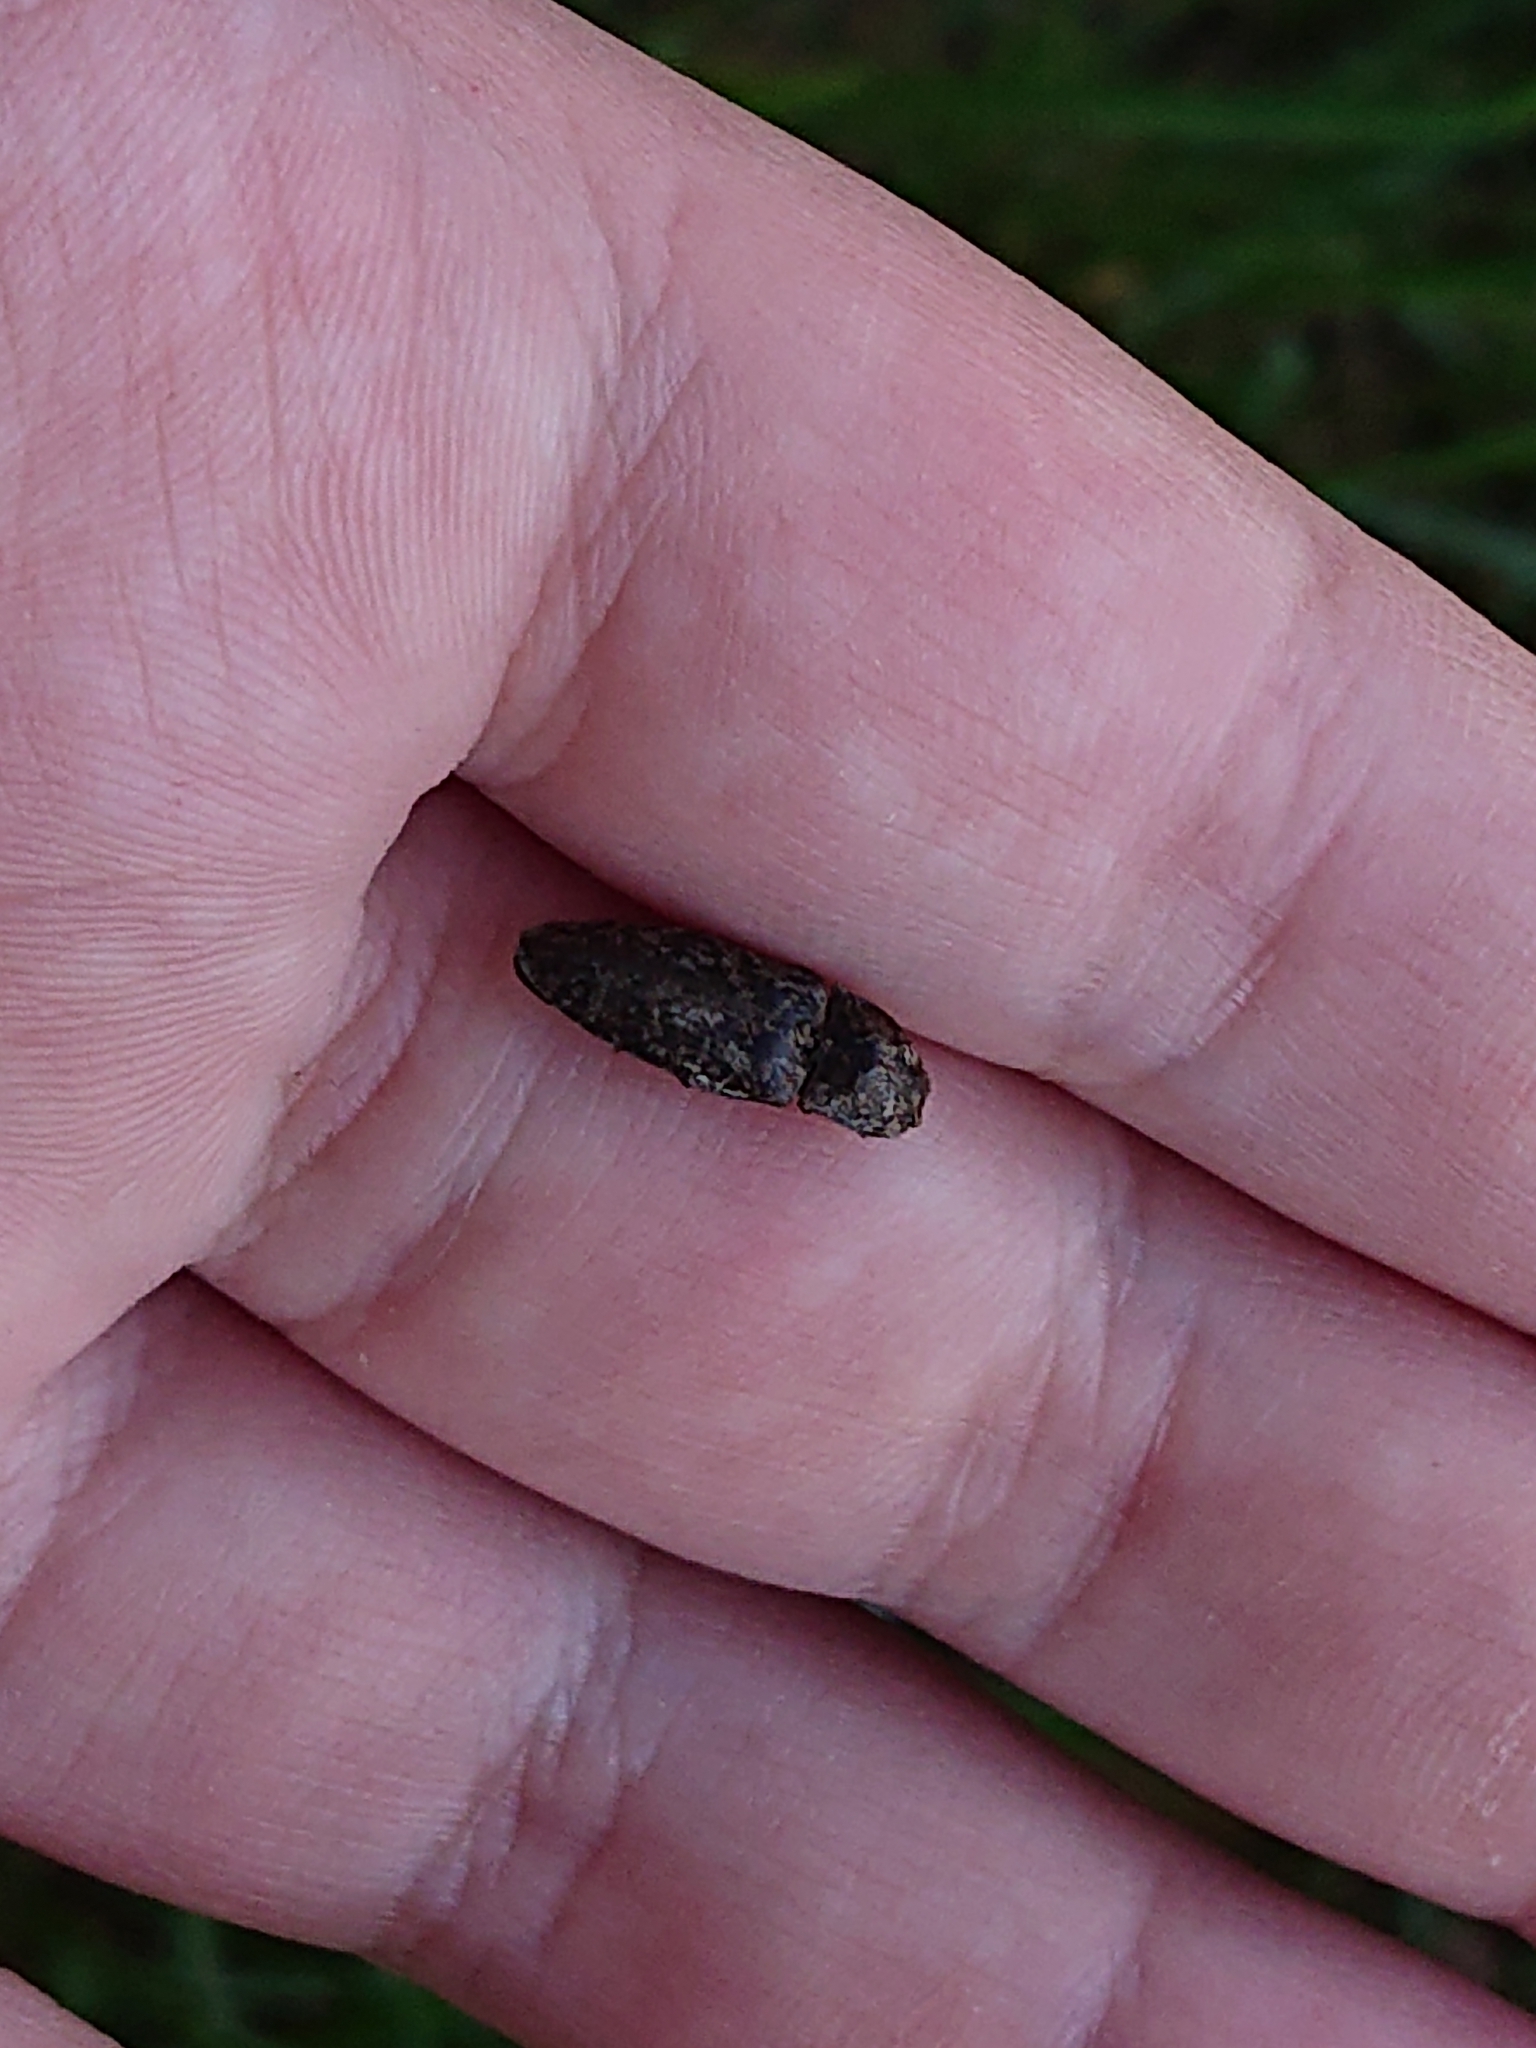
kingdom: Animalia
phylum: Arthropoda
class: Insecta
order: Coleoptera
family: Elateridae
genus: Agrypnus
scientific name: Agrypnus murinus
